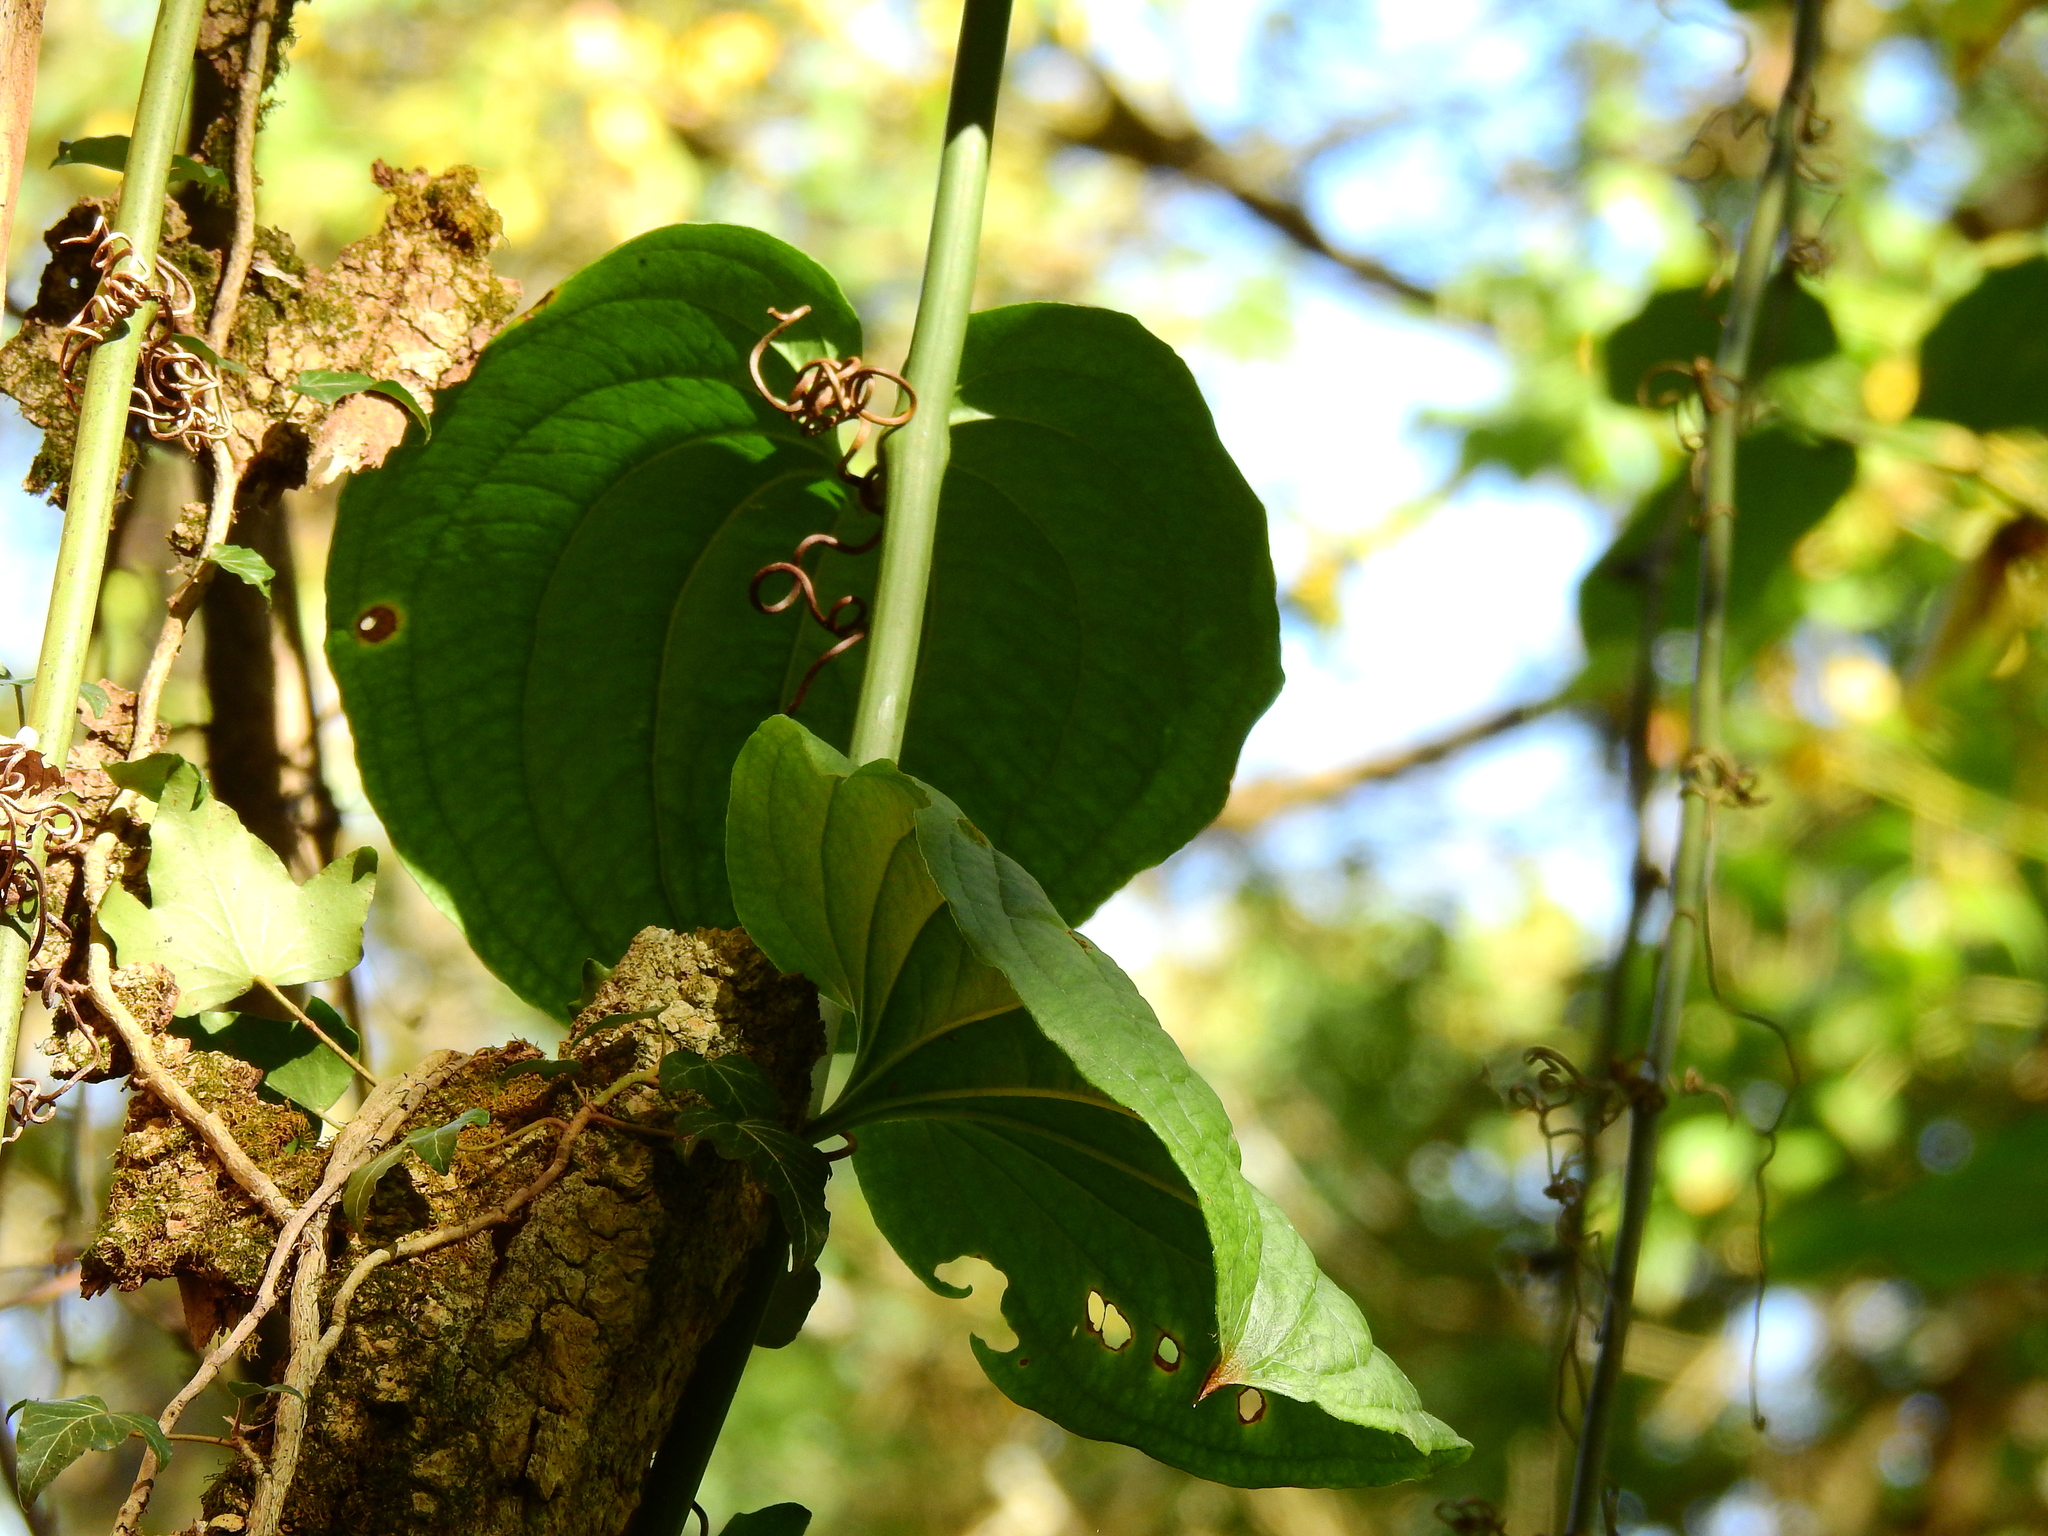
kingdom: Plantae
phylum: Tracheophyta
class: Liliopsida
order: Liliales
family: Smilacaceae
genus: Smilax
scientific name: Smilax rotundifolia
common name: Bullbriar
